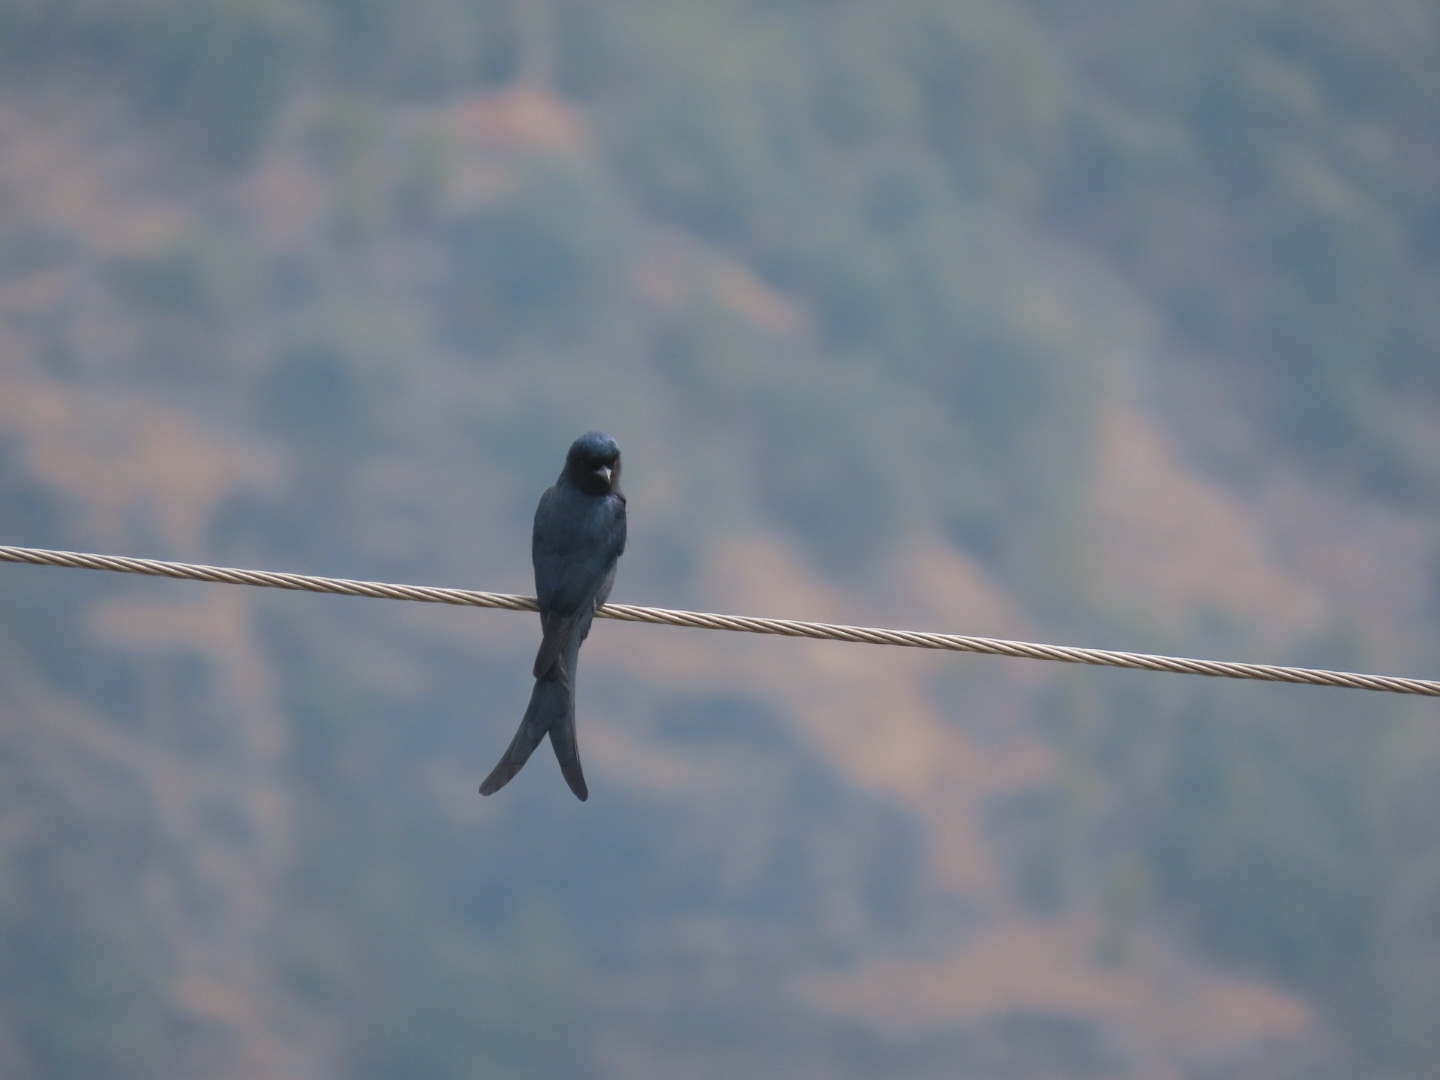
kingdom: Animalia
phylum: Chordata
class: Aves
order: Passeriformes
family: Dicruridae
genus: Dicrurus
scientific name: Dicrurus leucophaeus
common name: Ashy drongo
